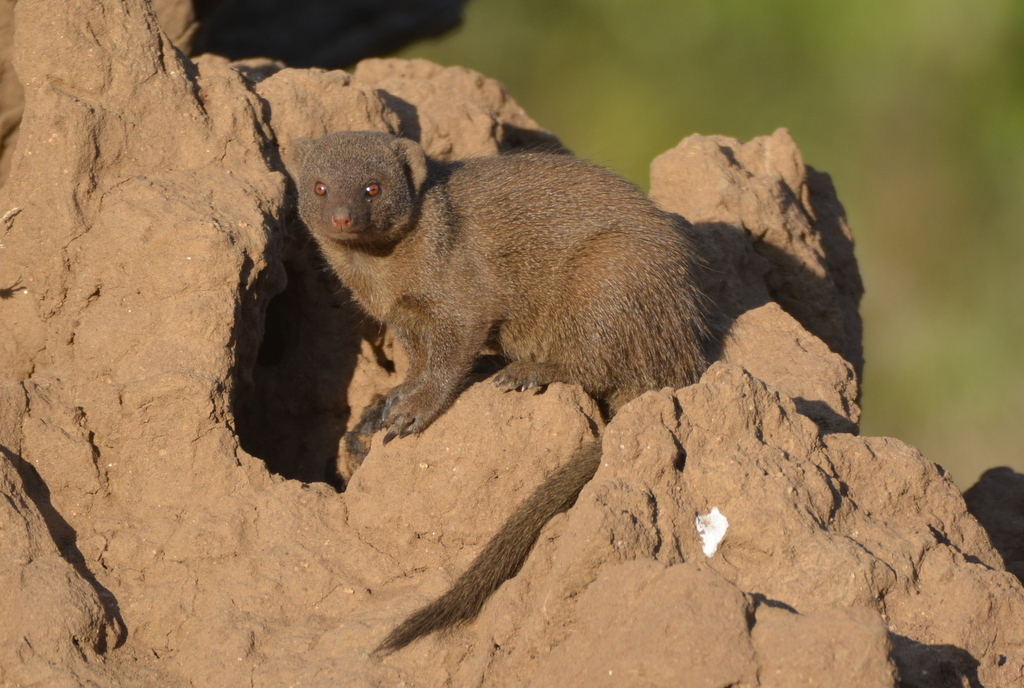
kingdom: Animalia
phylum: Chordata
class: Mammalia
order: Carnivora
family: Herpestidae
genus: Helogale
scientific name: Helogale parvula
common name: Common dwarf mongoose
